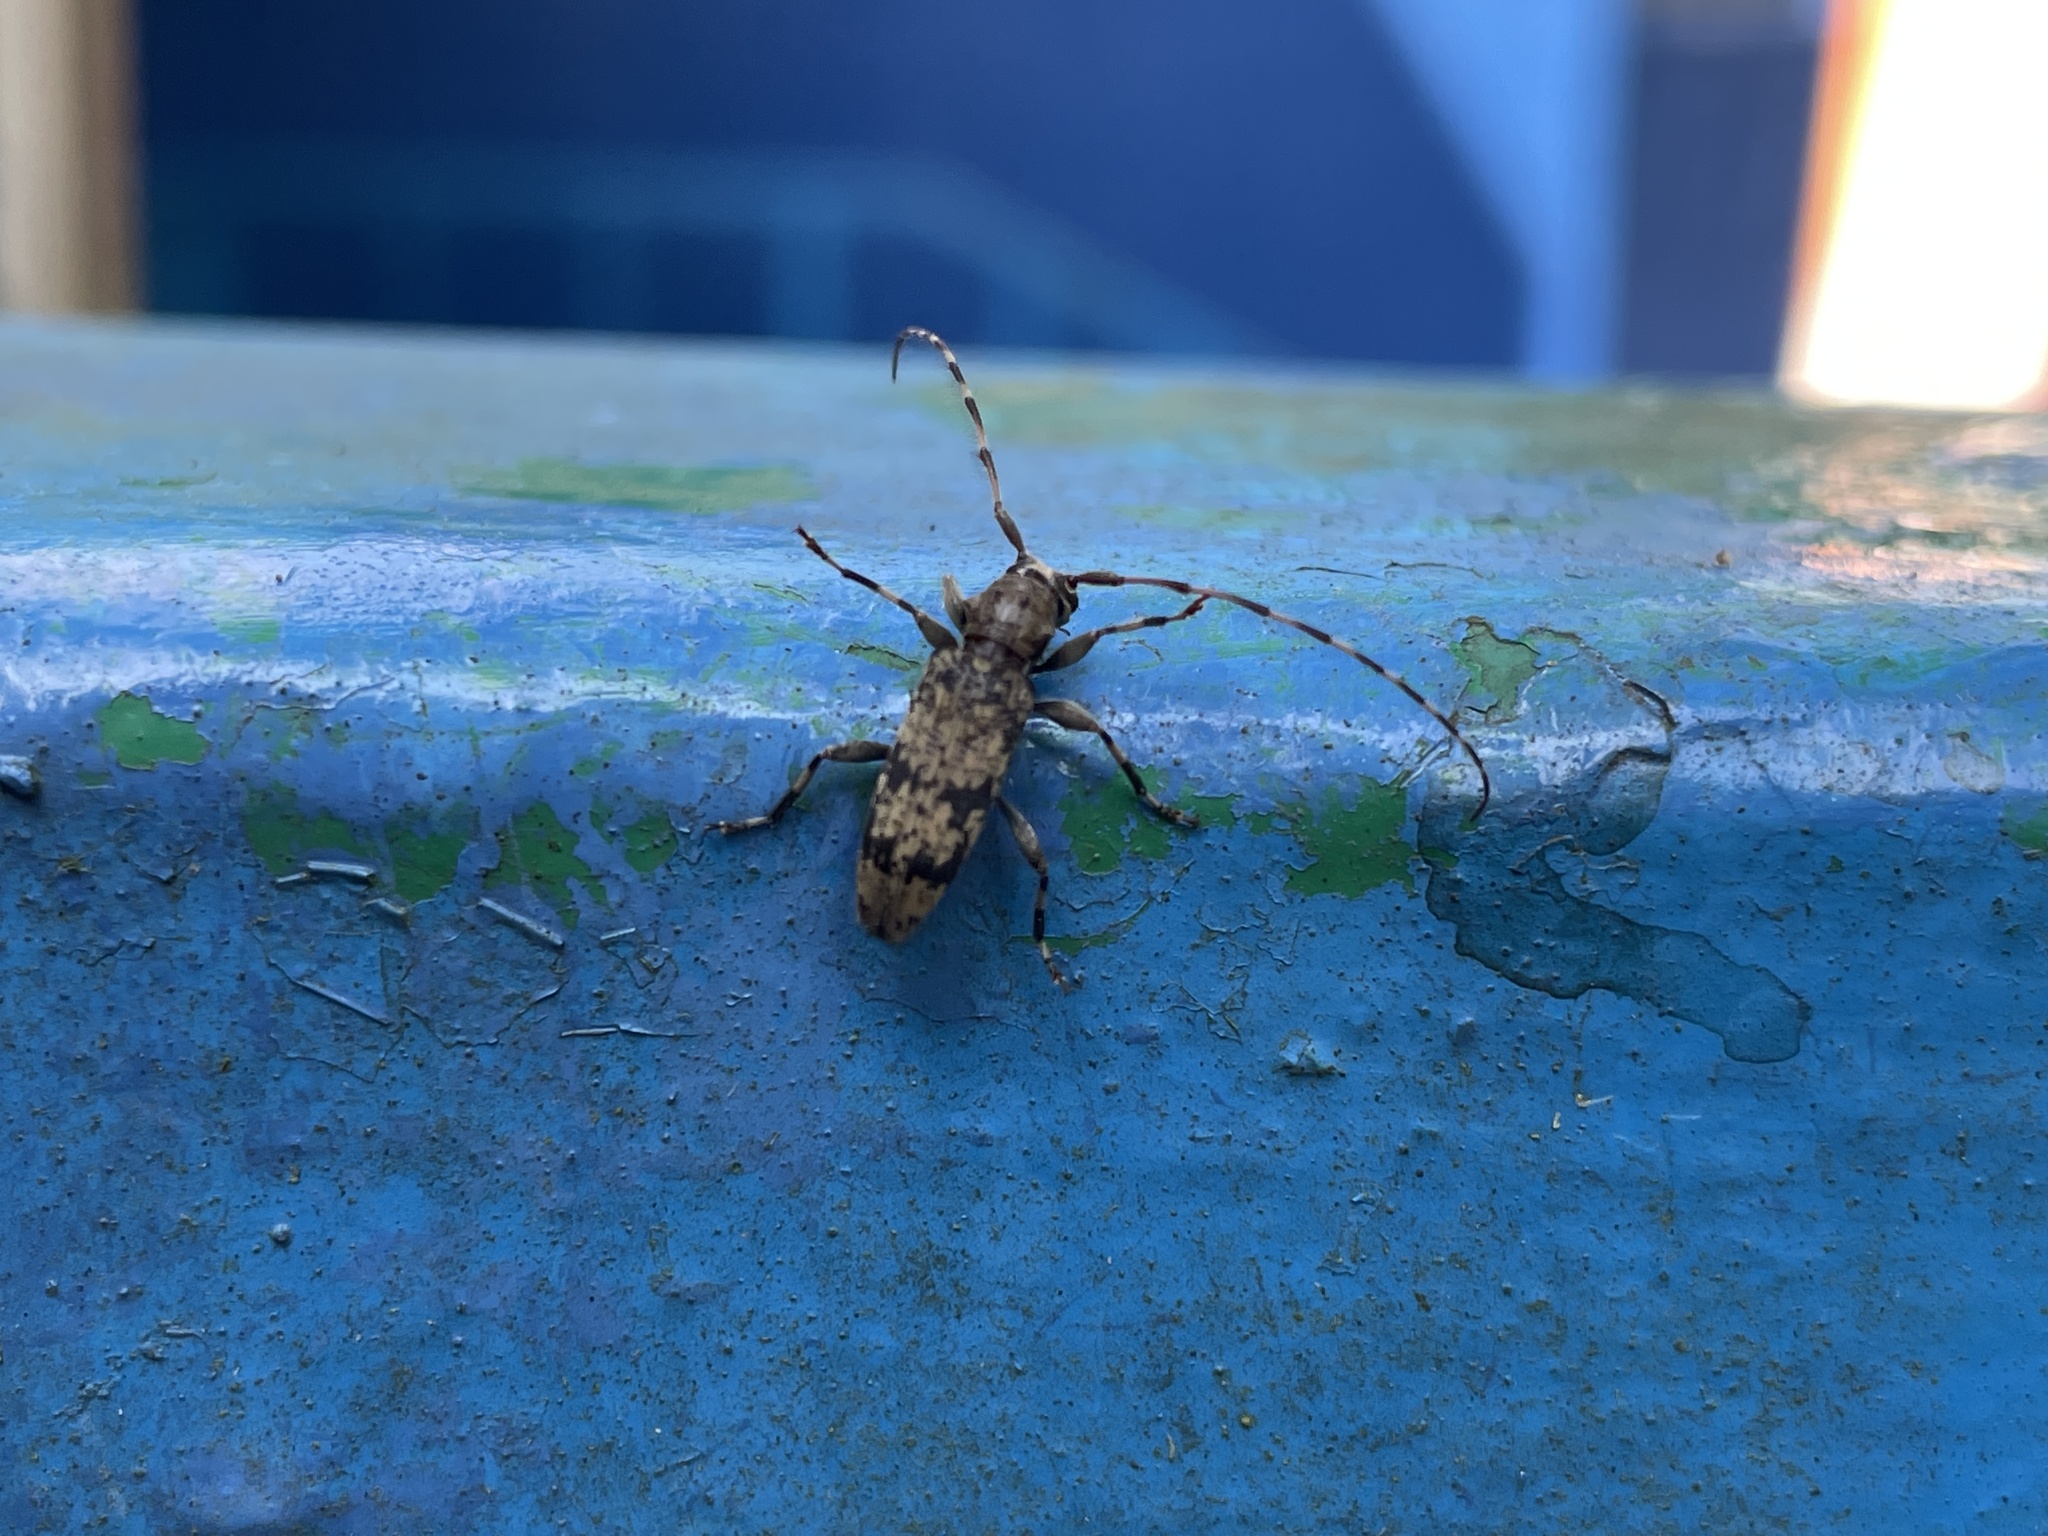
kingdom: Animalia
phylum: Arthropoda
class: Insecta
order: Coleoptera
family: Cerambycidae
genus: Ostedes
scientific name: Ostedes inermis
